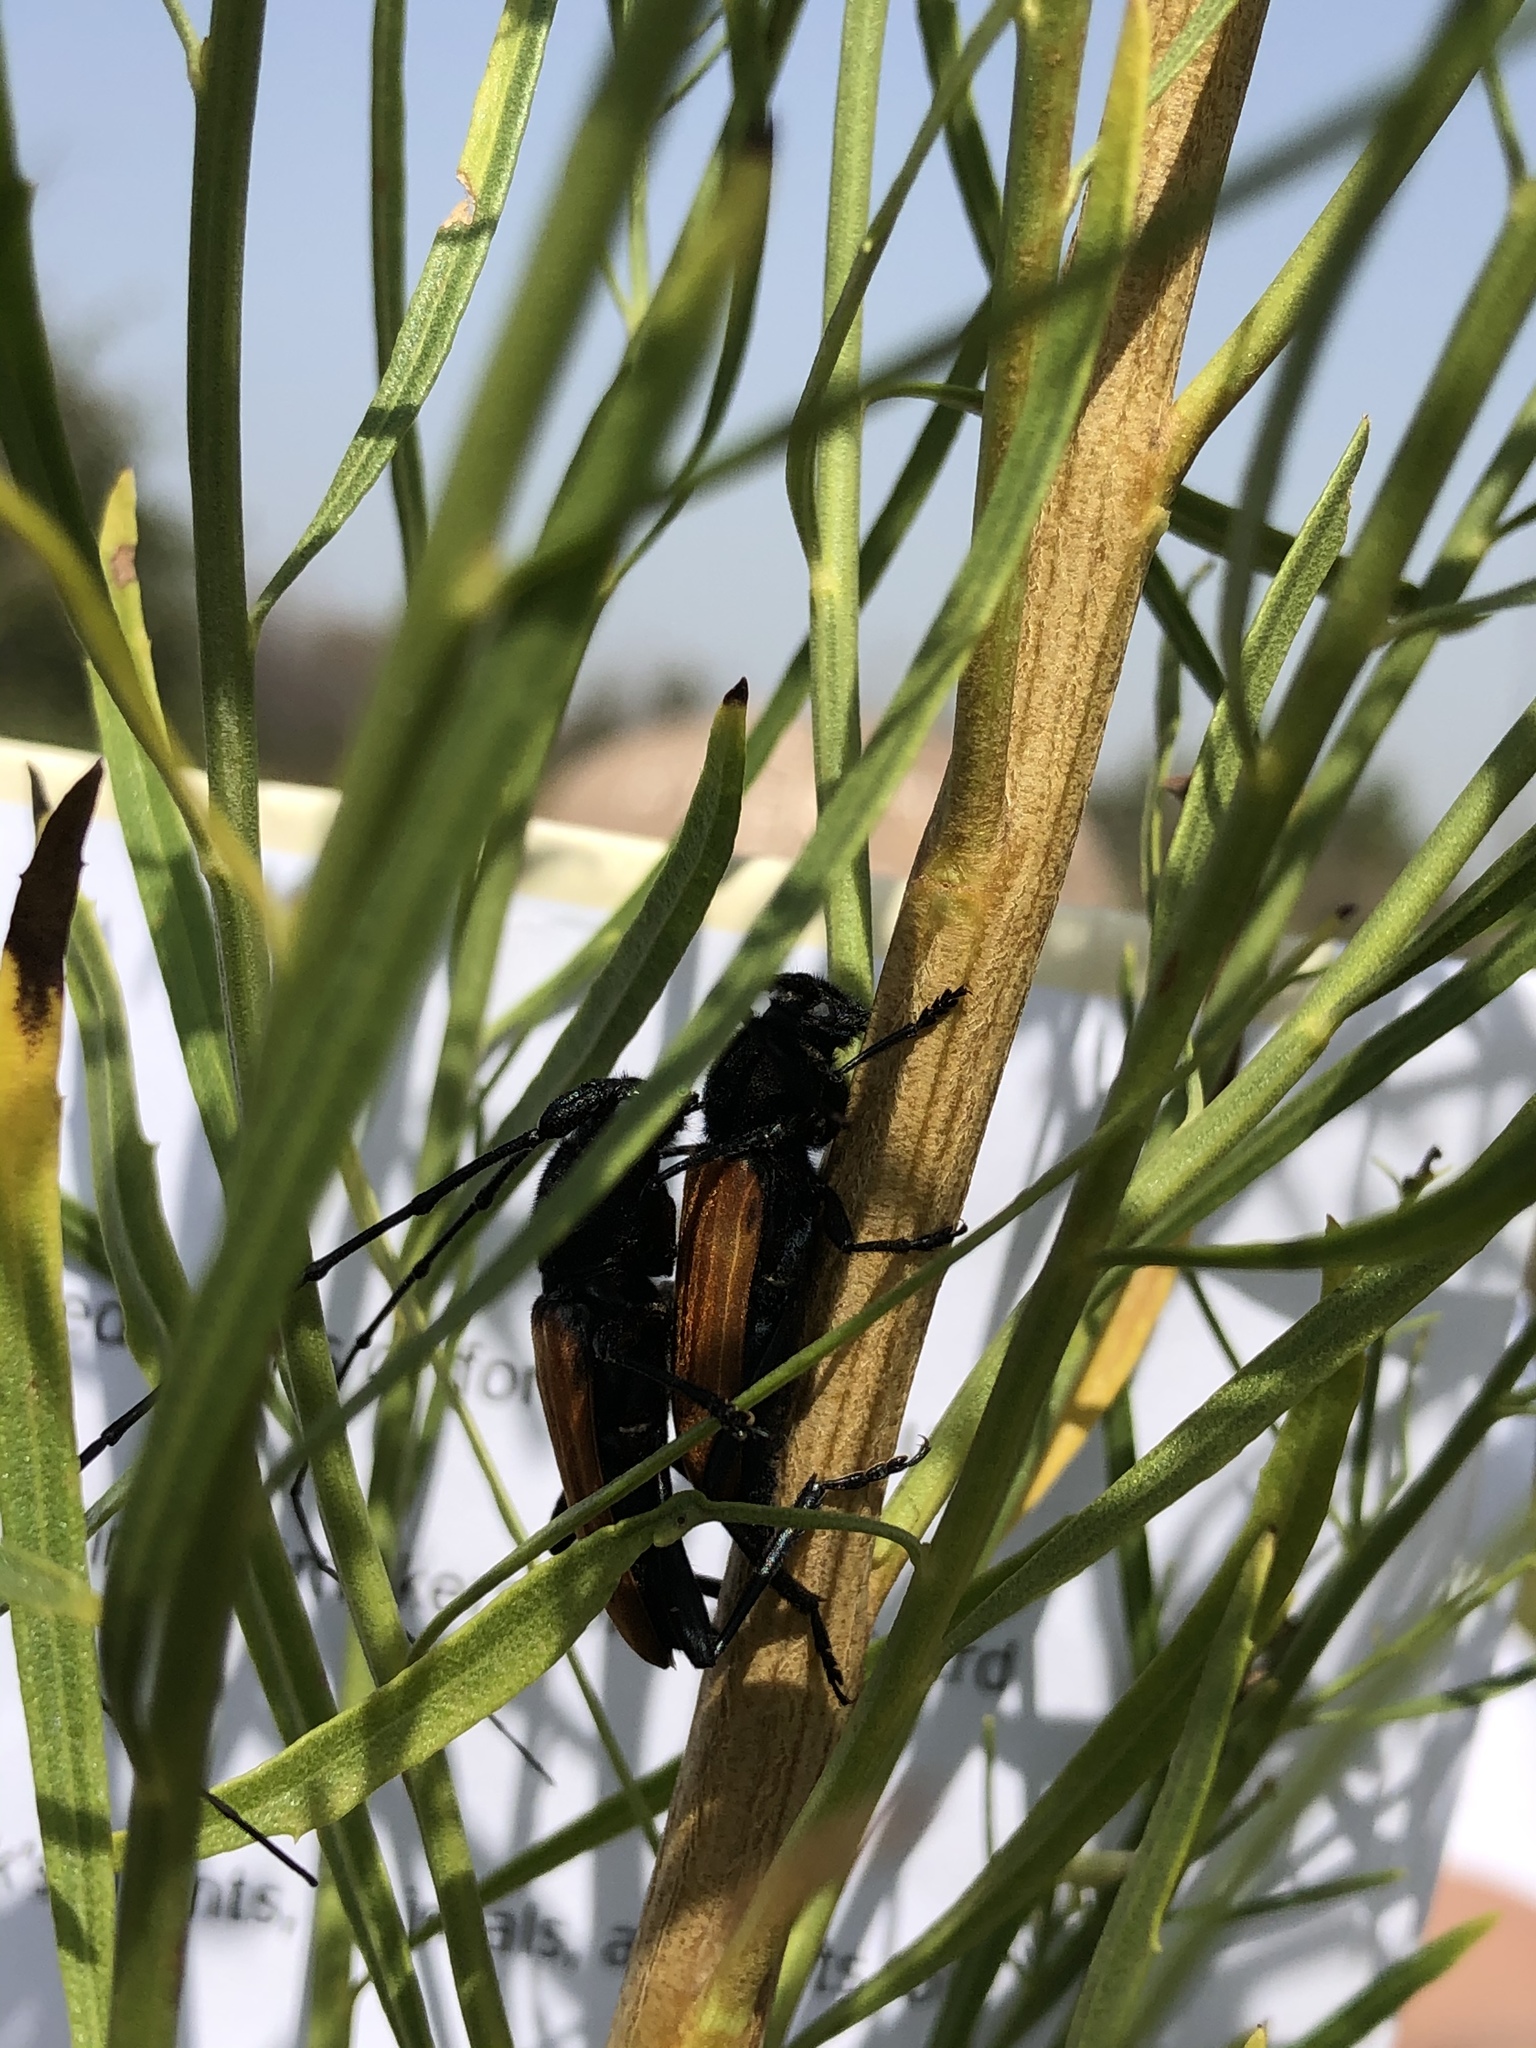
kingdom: Animalia
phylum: Arthropoda
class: Insecta
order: Coleoptera
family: Cerambycidae
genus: Tragidion
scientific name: Tragidion coquus
